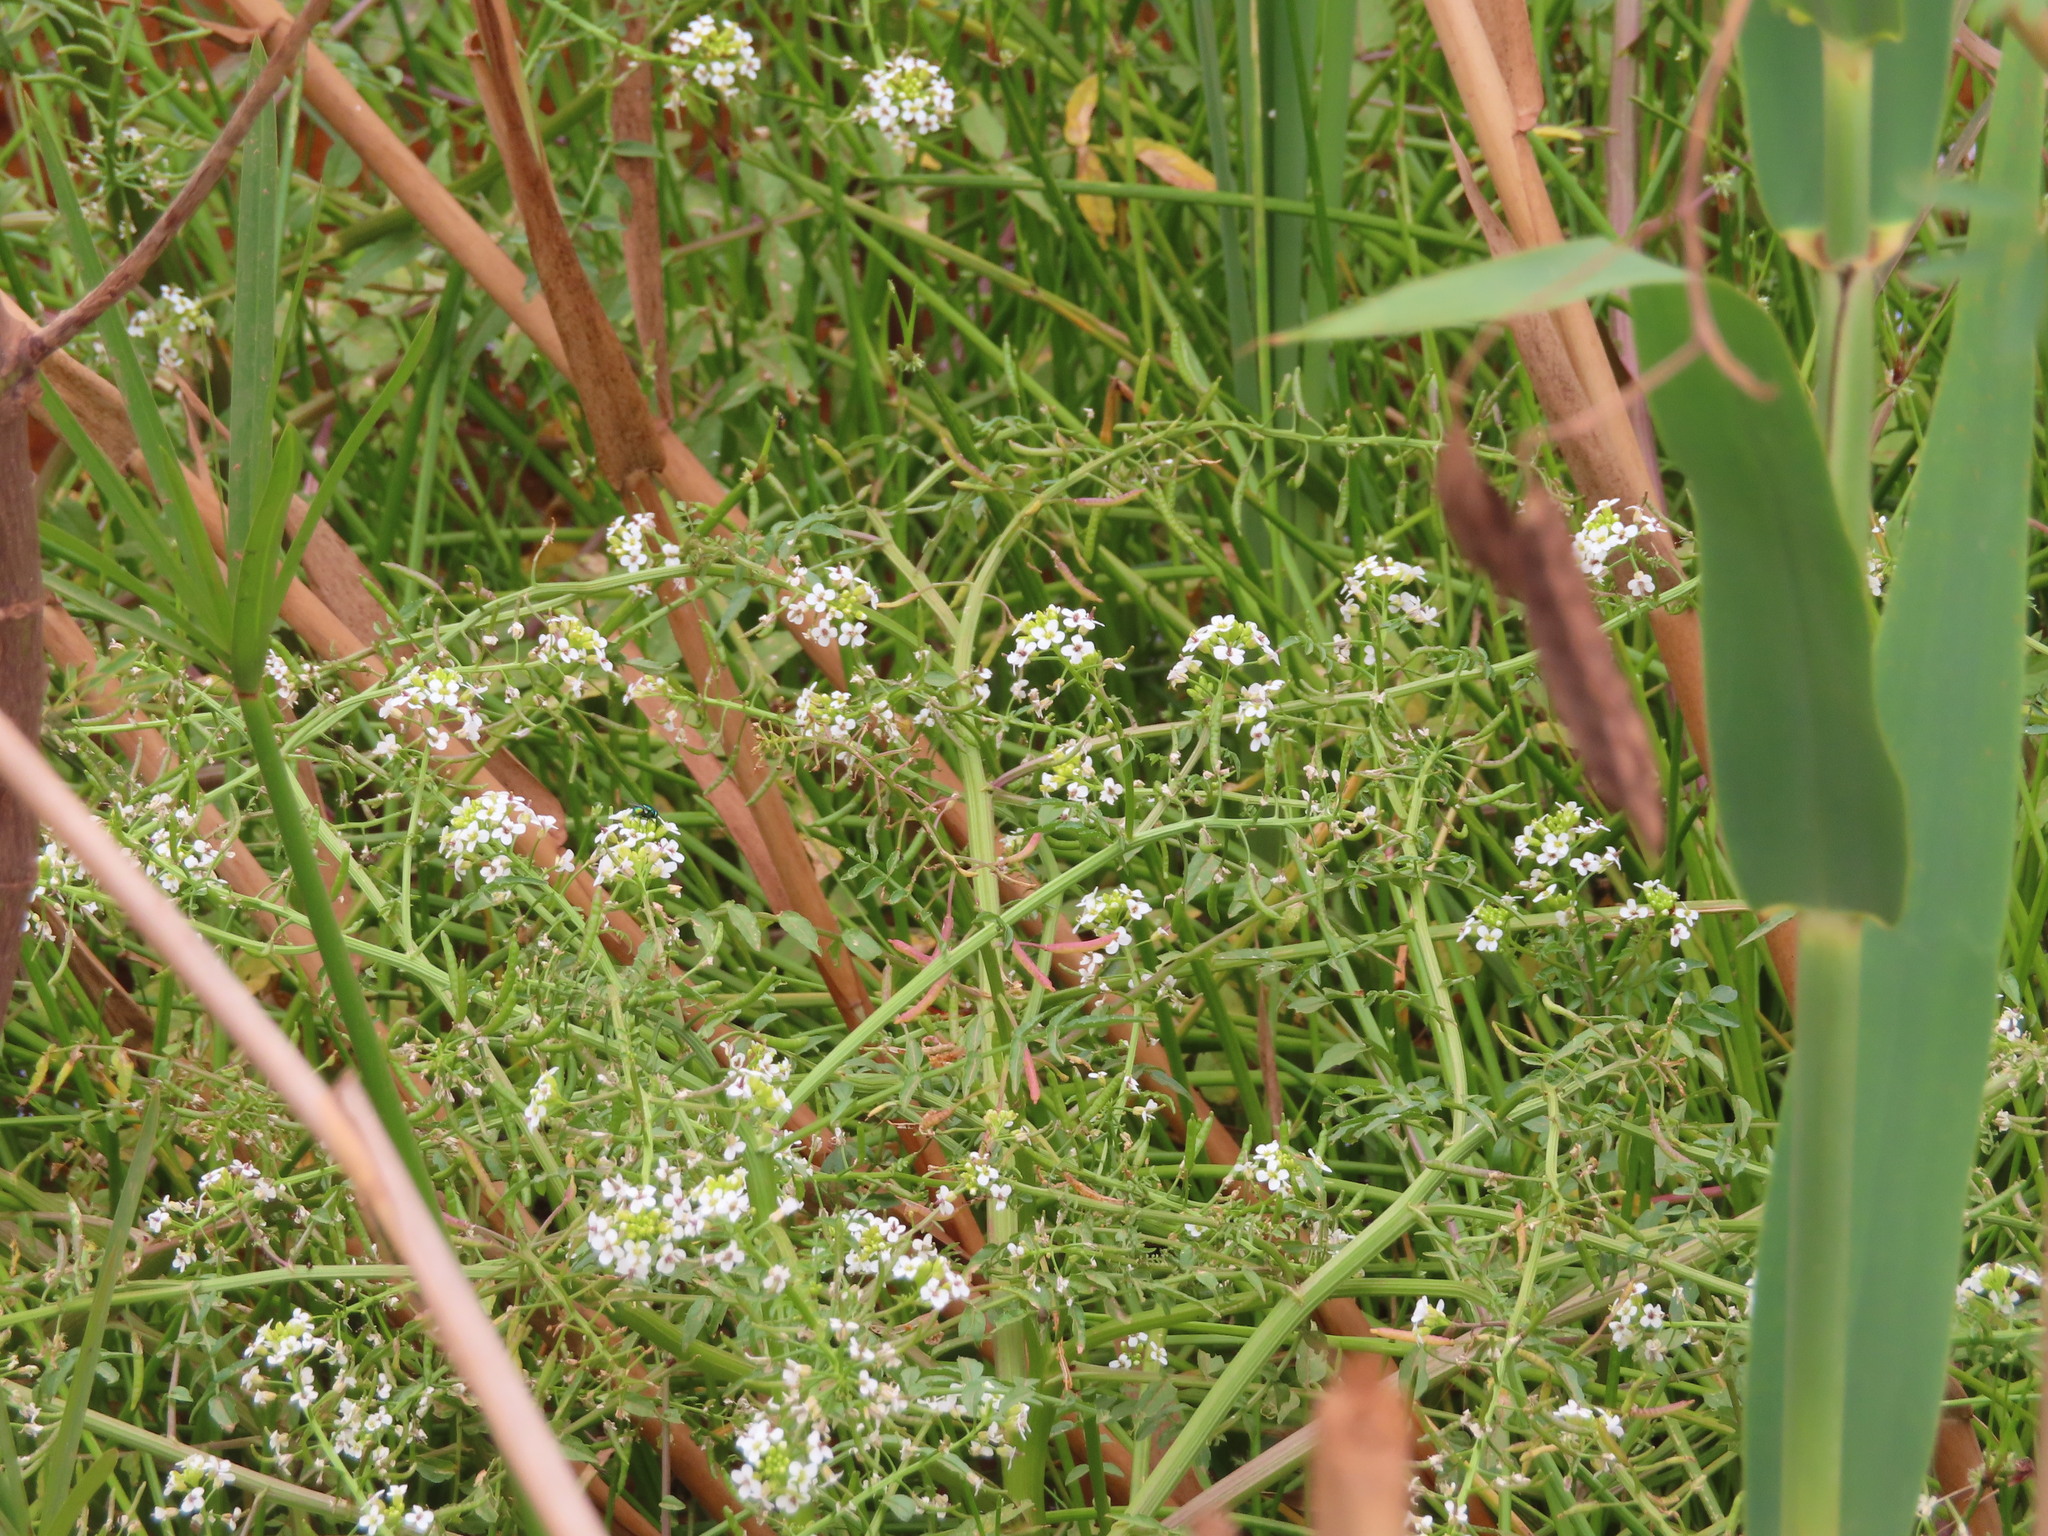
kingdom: Plantae
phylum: Tracheophyta
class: Magnoliopsida
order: Brassicales
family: Brassicaceae
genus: Nasturtium
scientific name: Nasturtium officinale
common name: Watercress
